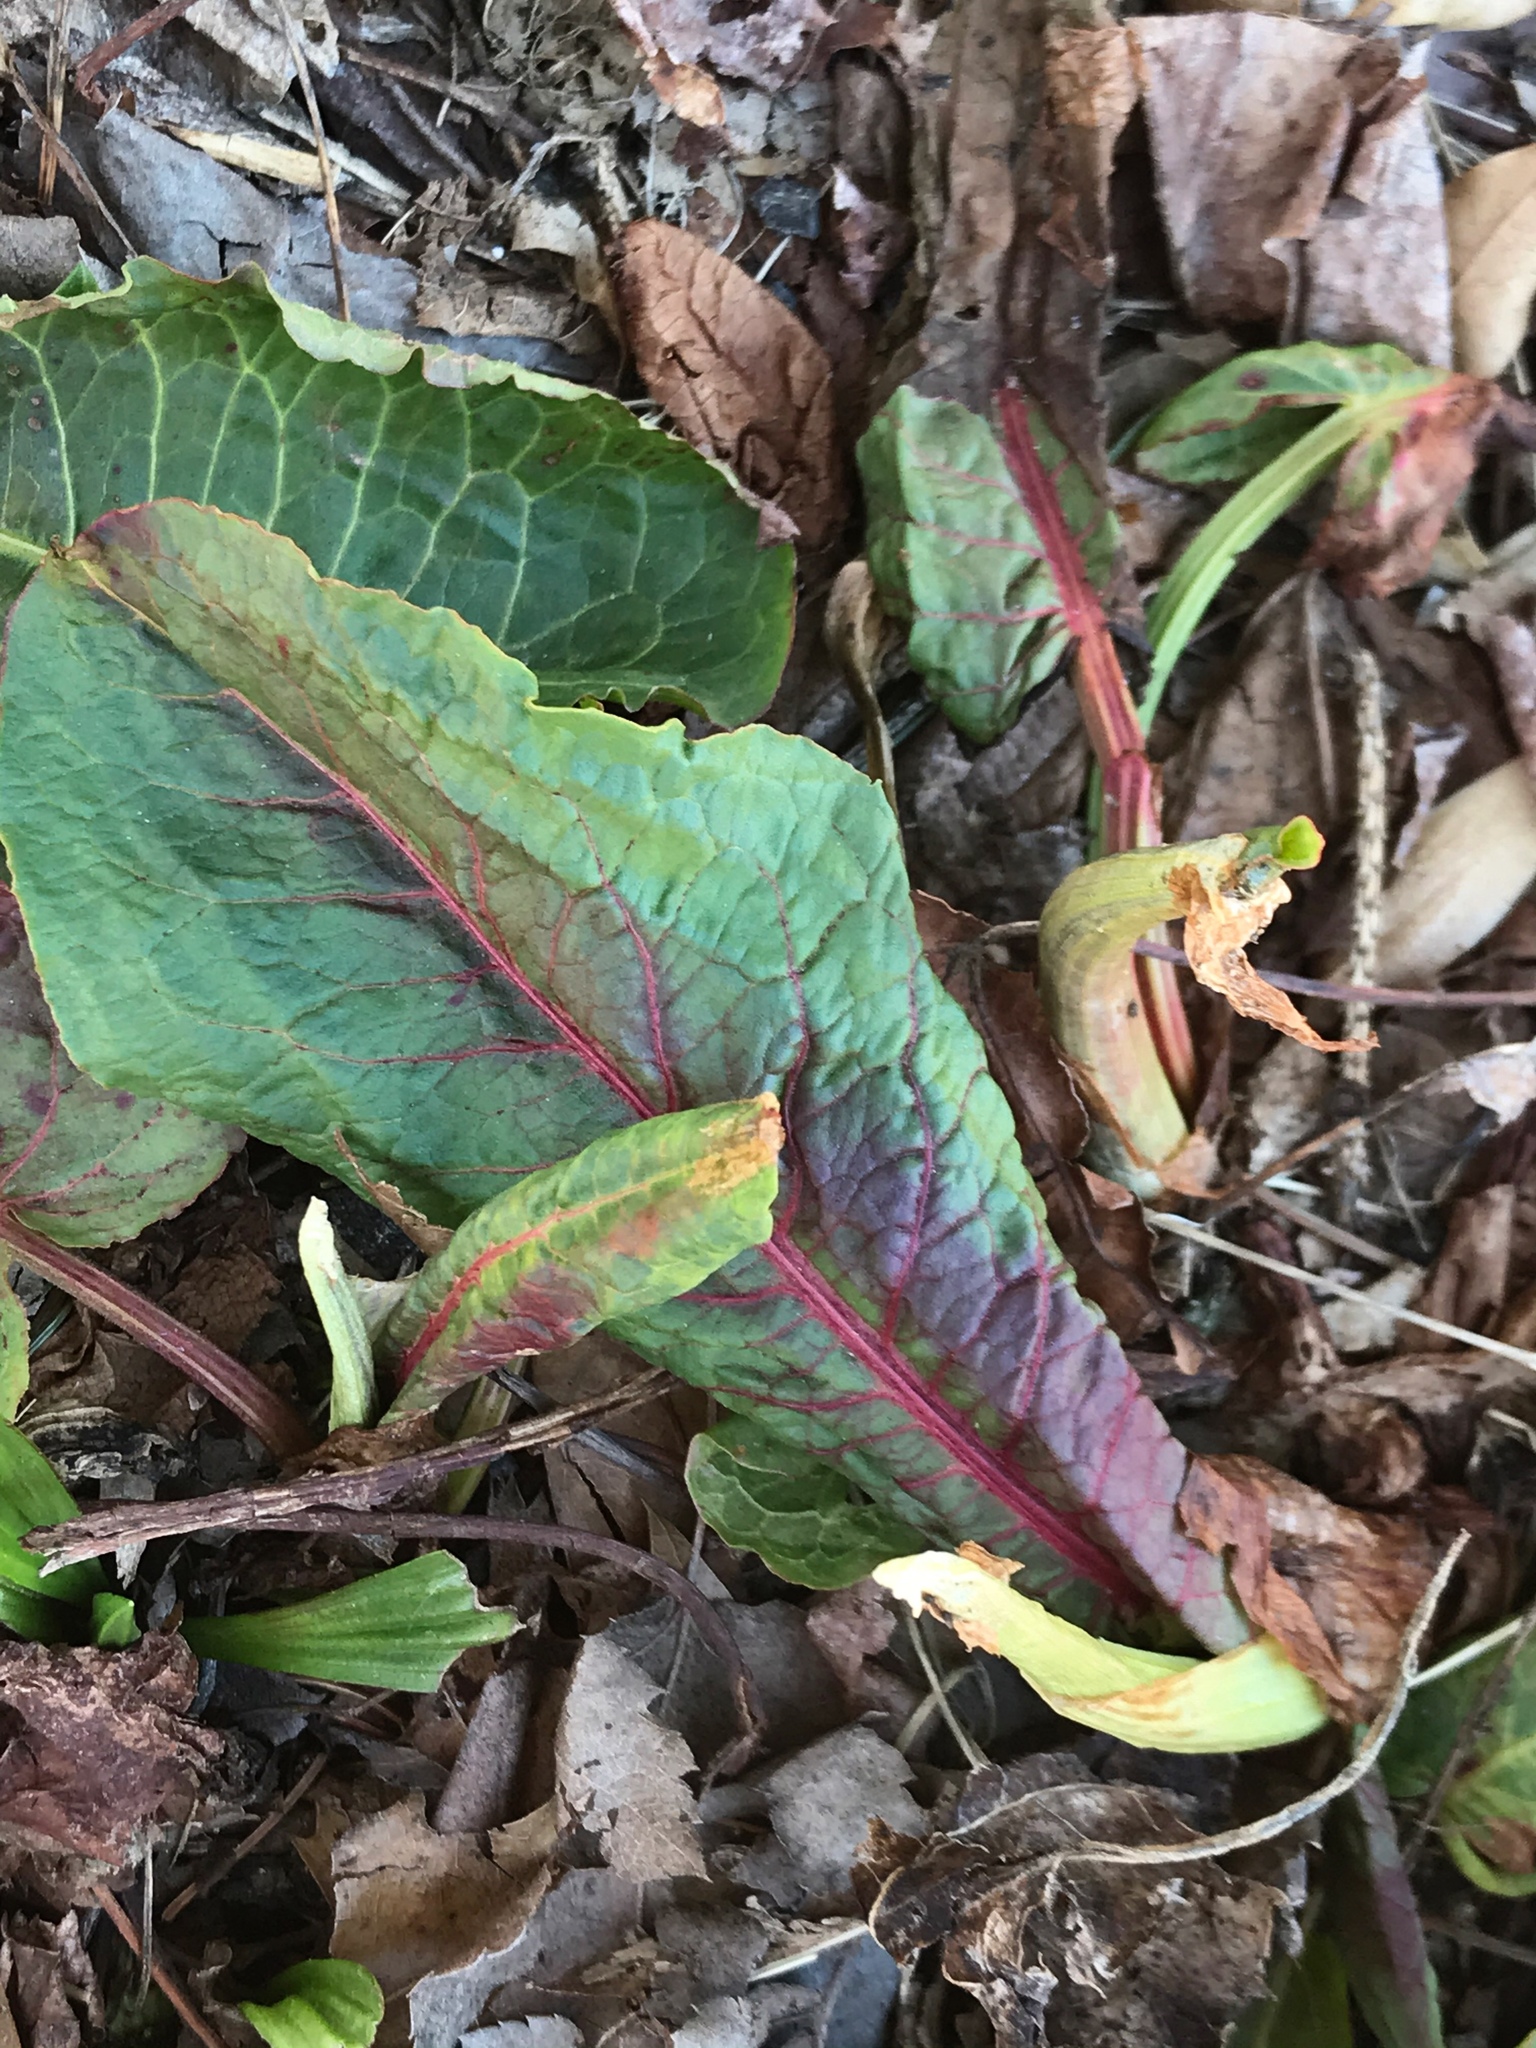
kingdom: Plantae
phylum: Tracheophyta
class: Magnoliopsida
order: Caryophyllales
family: Polygonaceae
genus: Rumex
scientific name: Rumex obtusifolius
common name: Bitter dock
